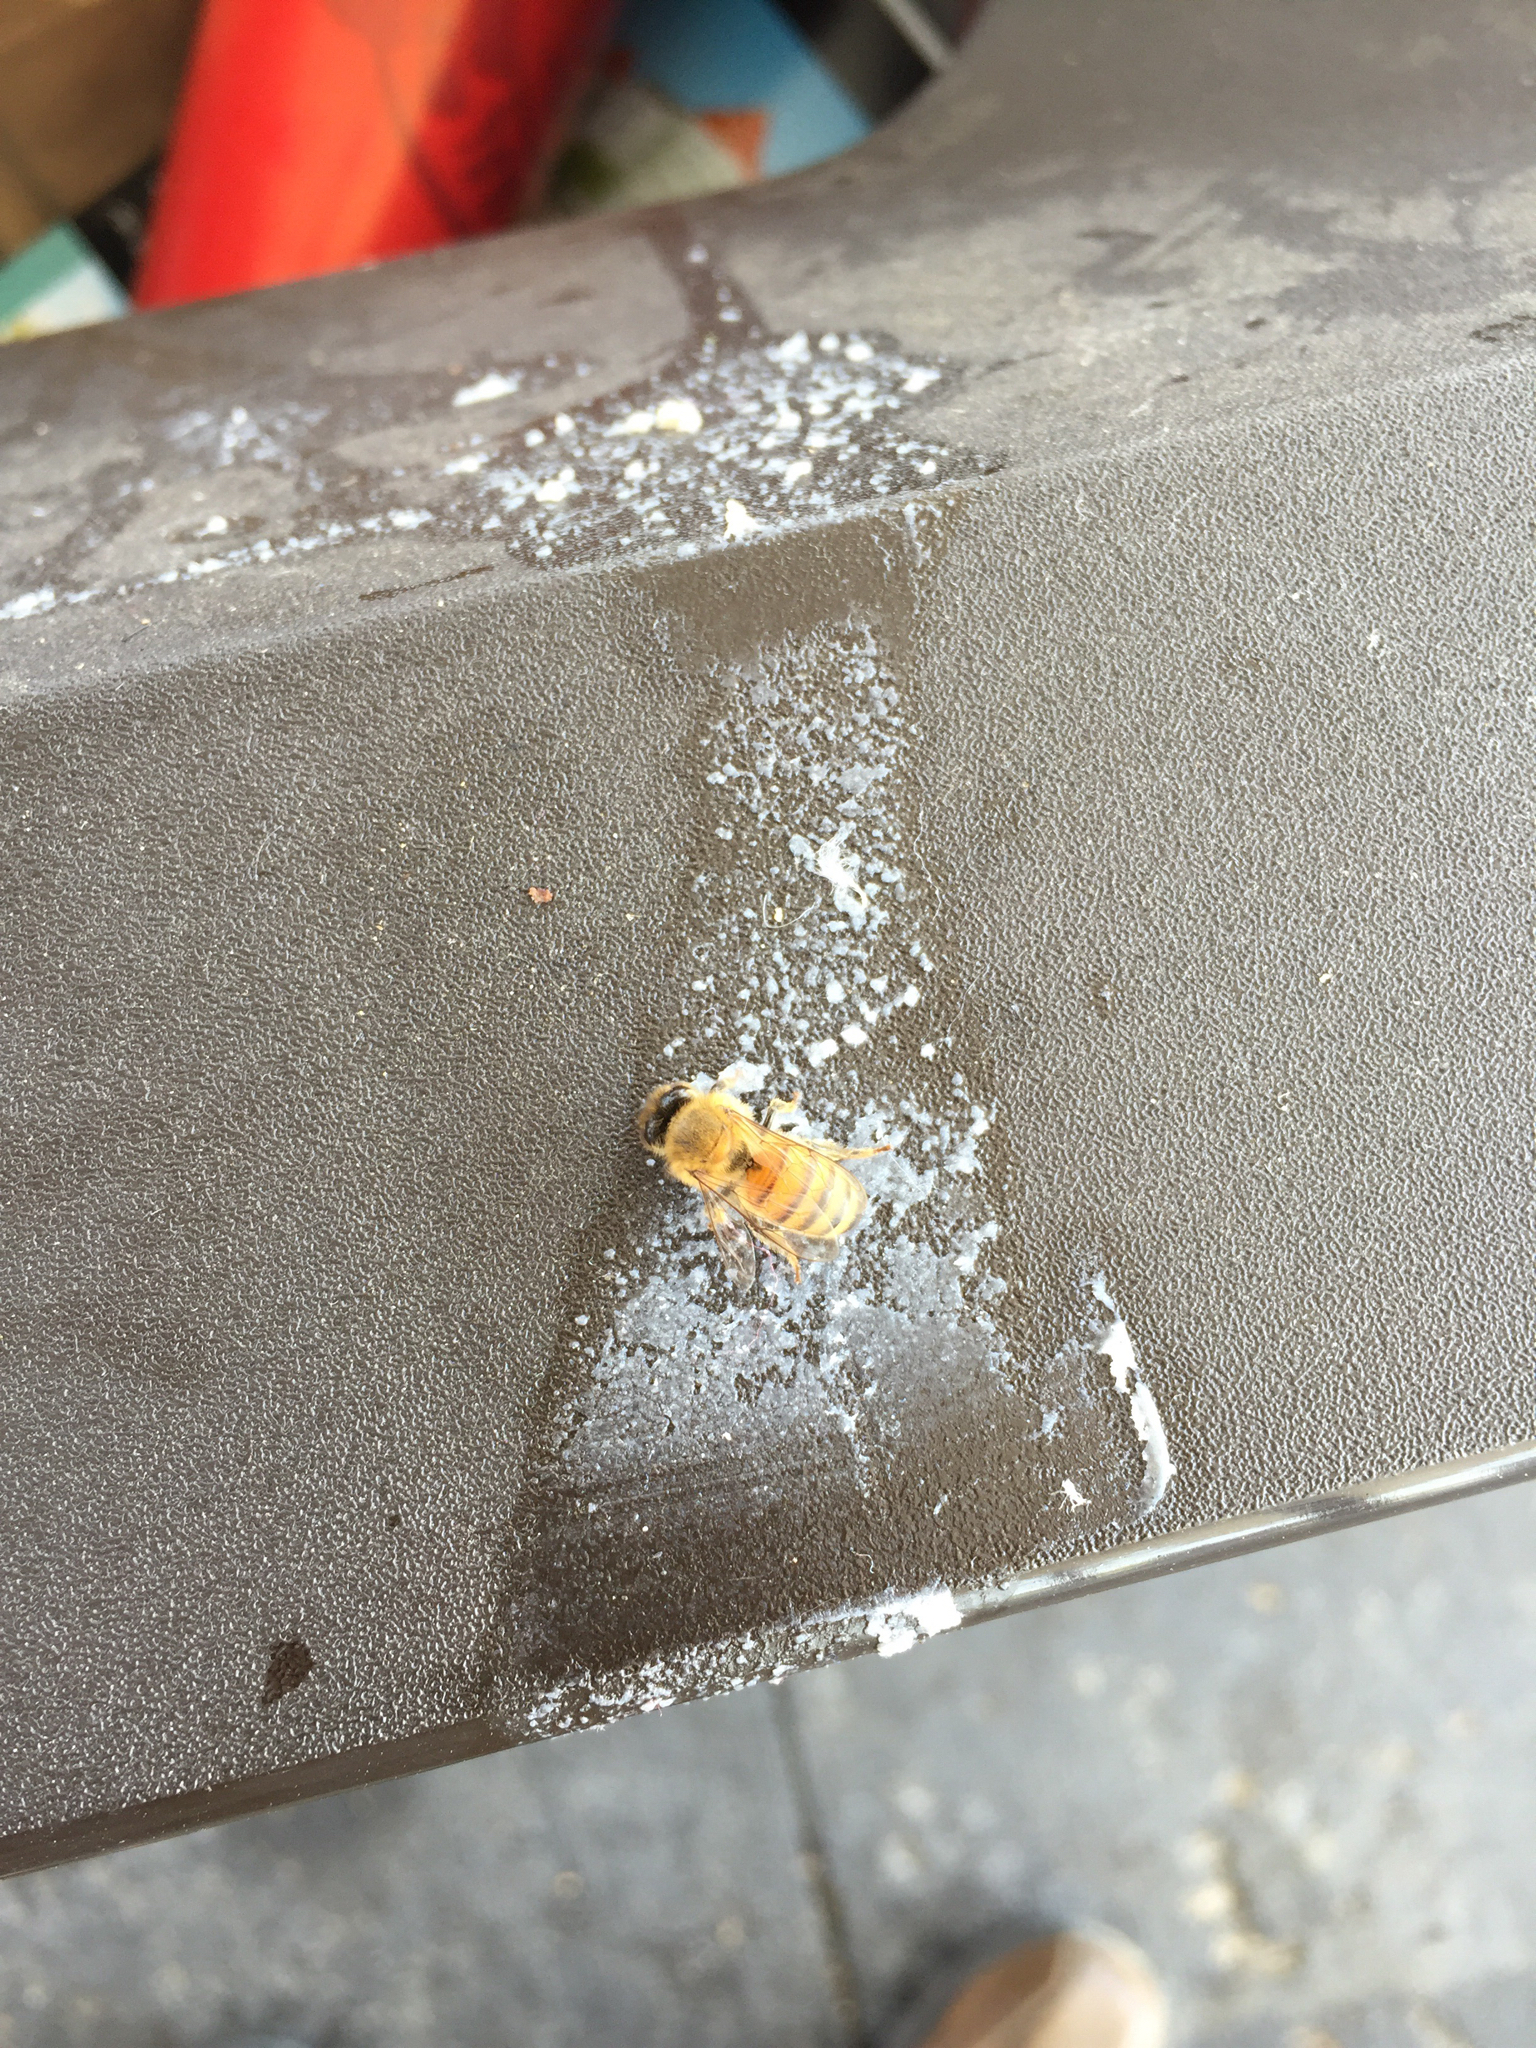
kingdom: Animalia
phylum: Arthropoda
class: Insecta
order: Hymenoptera
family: Apidae
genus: Apis
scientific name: Apis mellifera
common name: Honey bee
